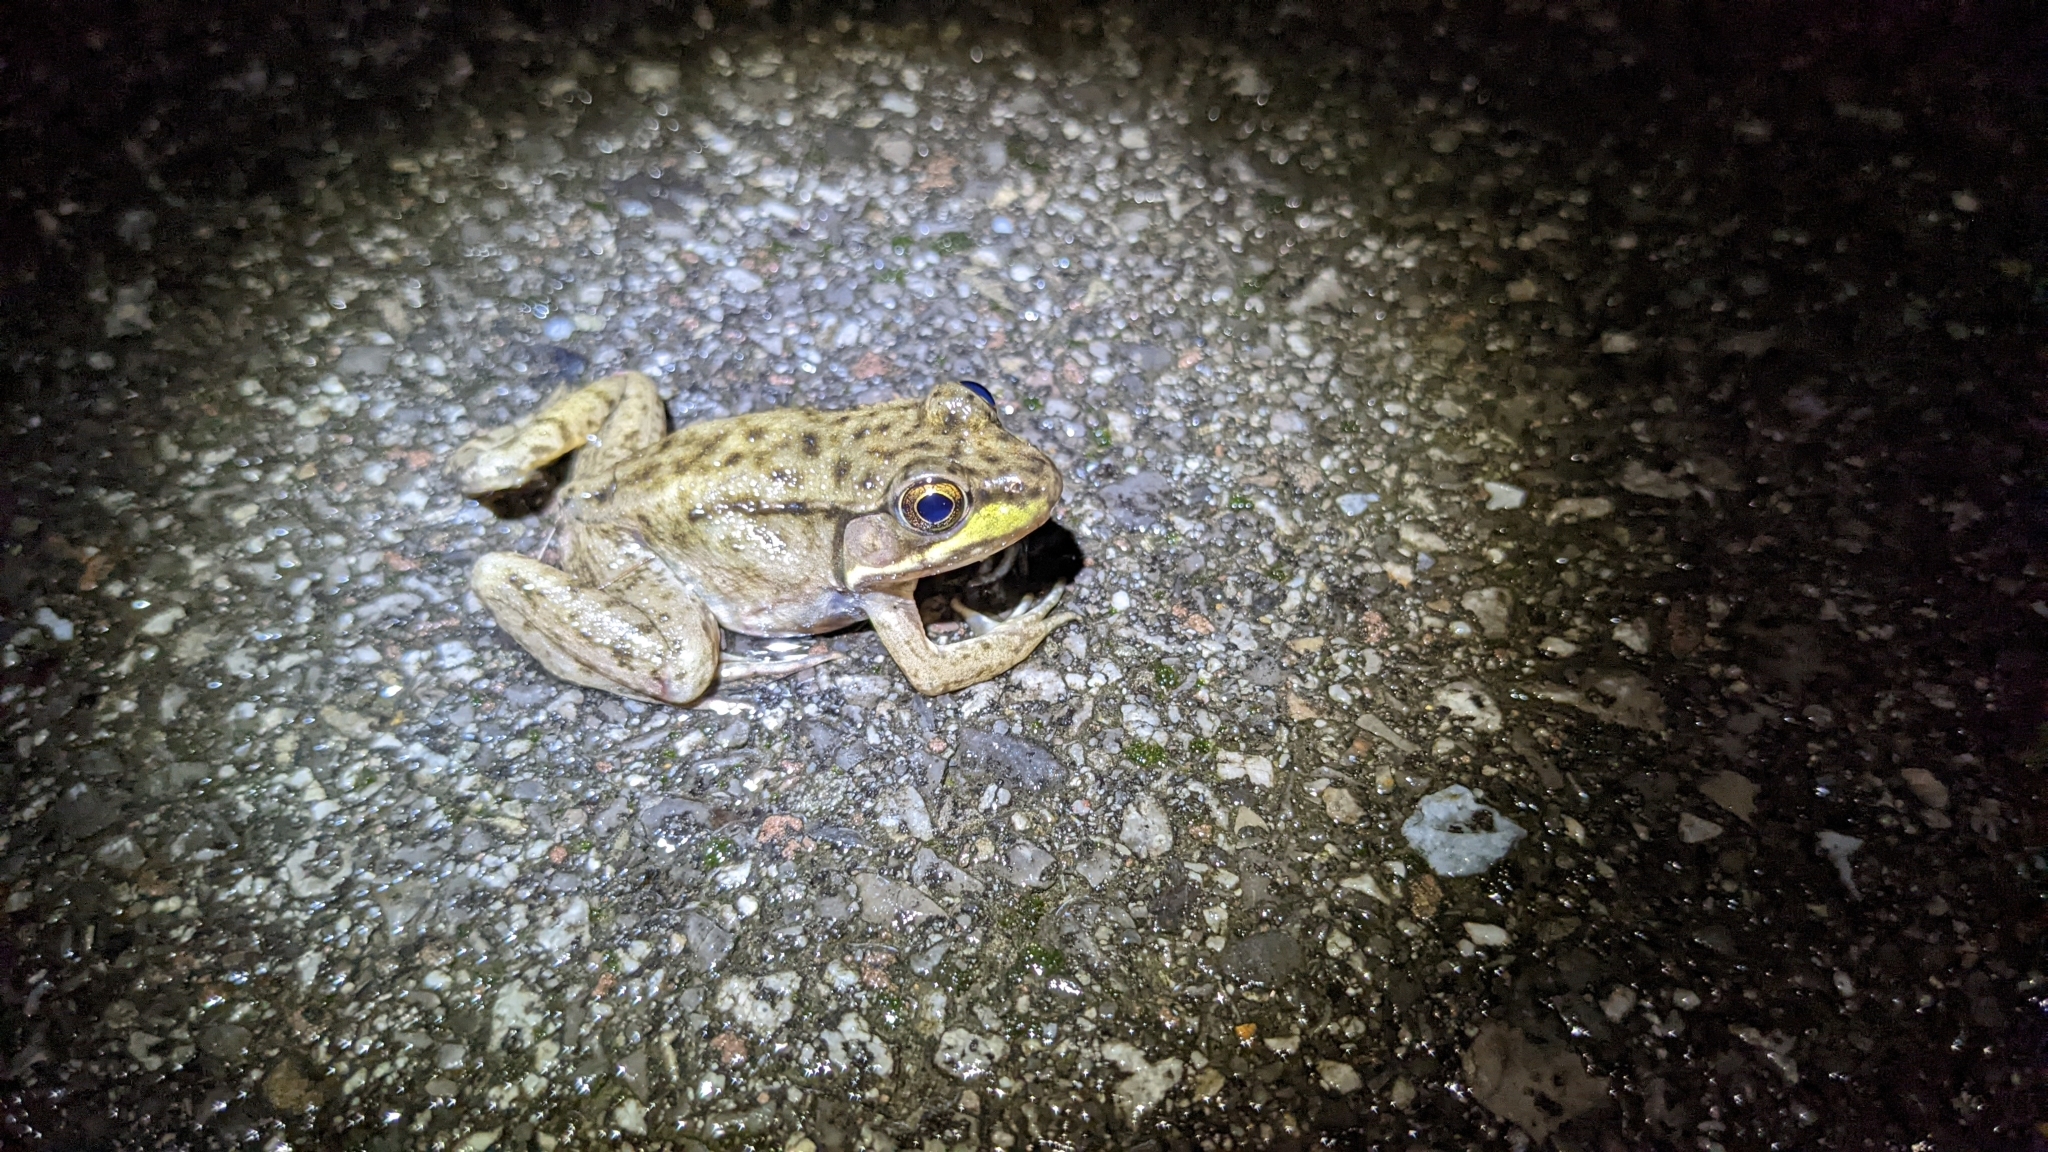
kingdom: Animalia
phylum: Chordata
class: Amphibia
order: Anura
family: Ranidae
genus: Lithobates
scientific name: Lithobates clamitans
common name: Green frog
